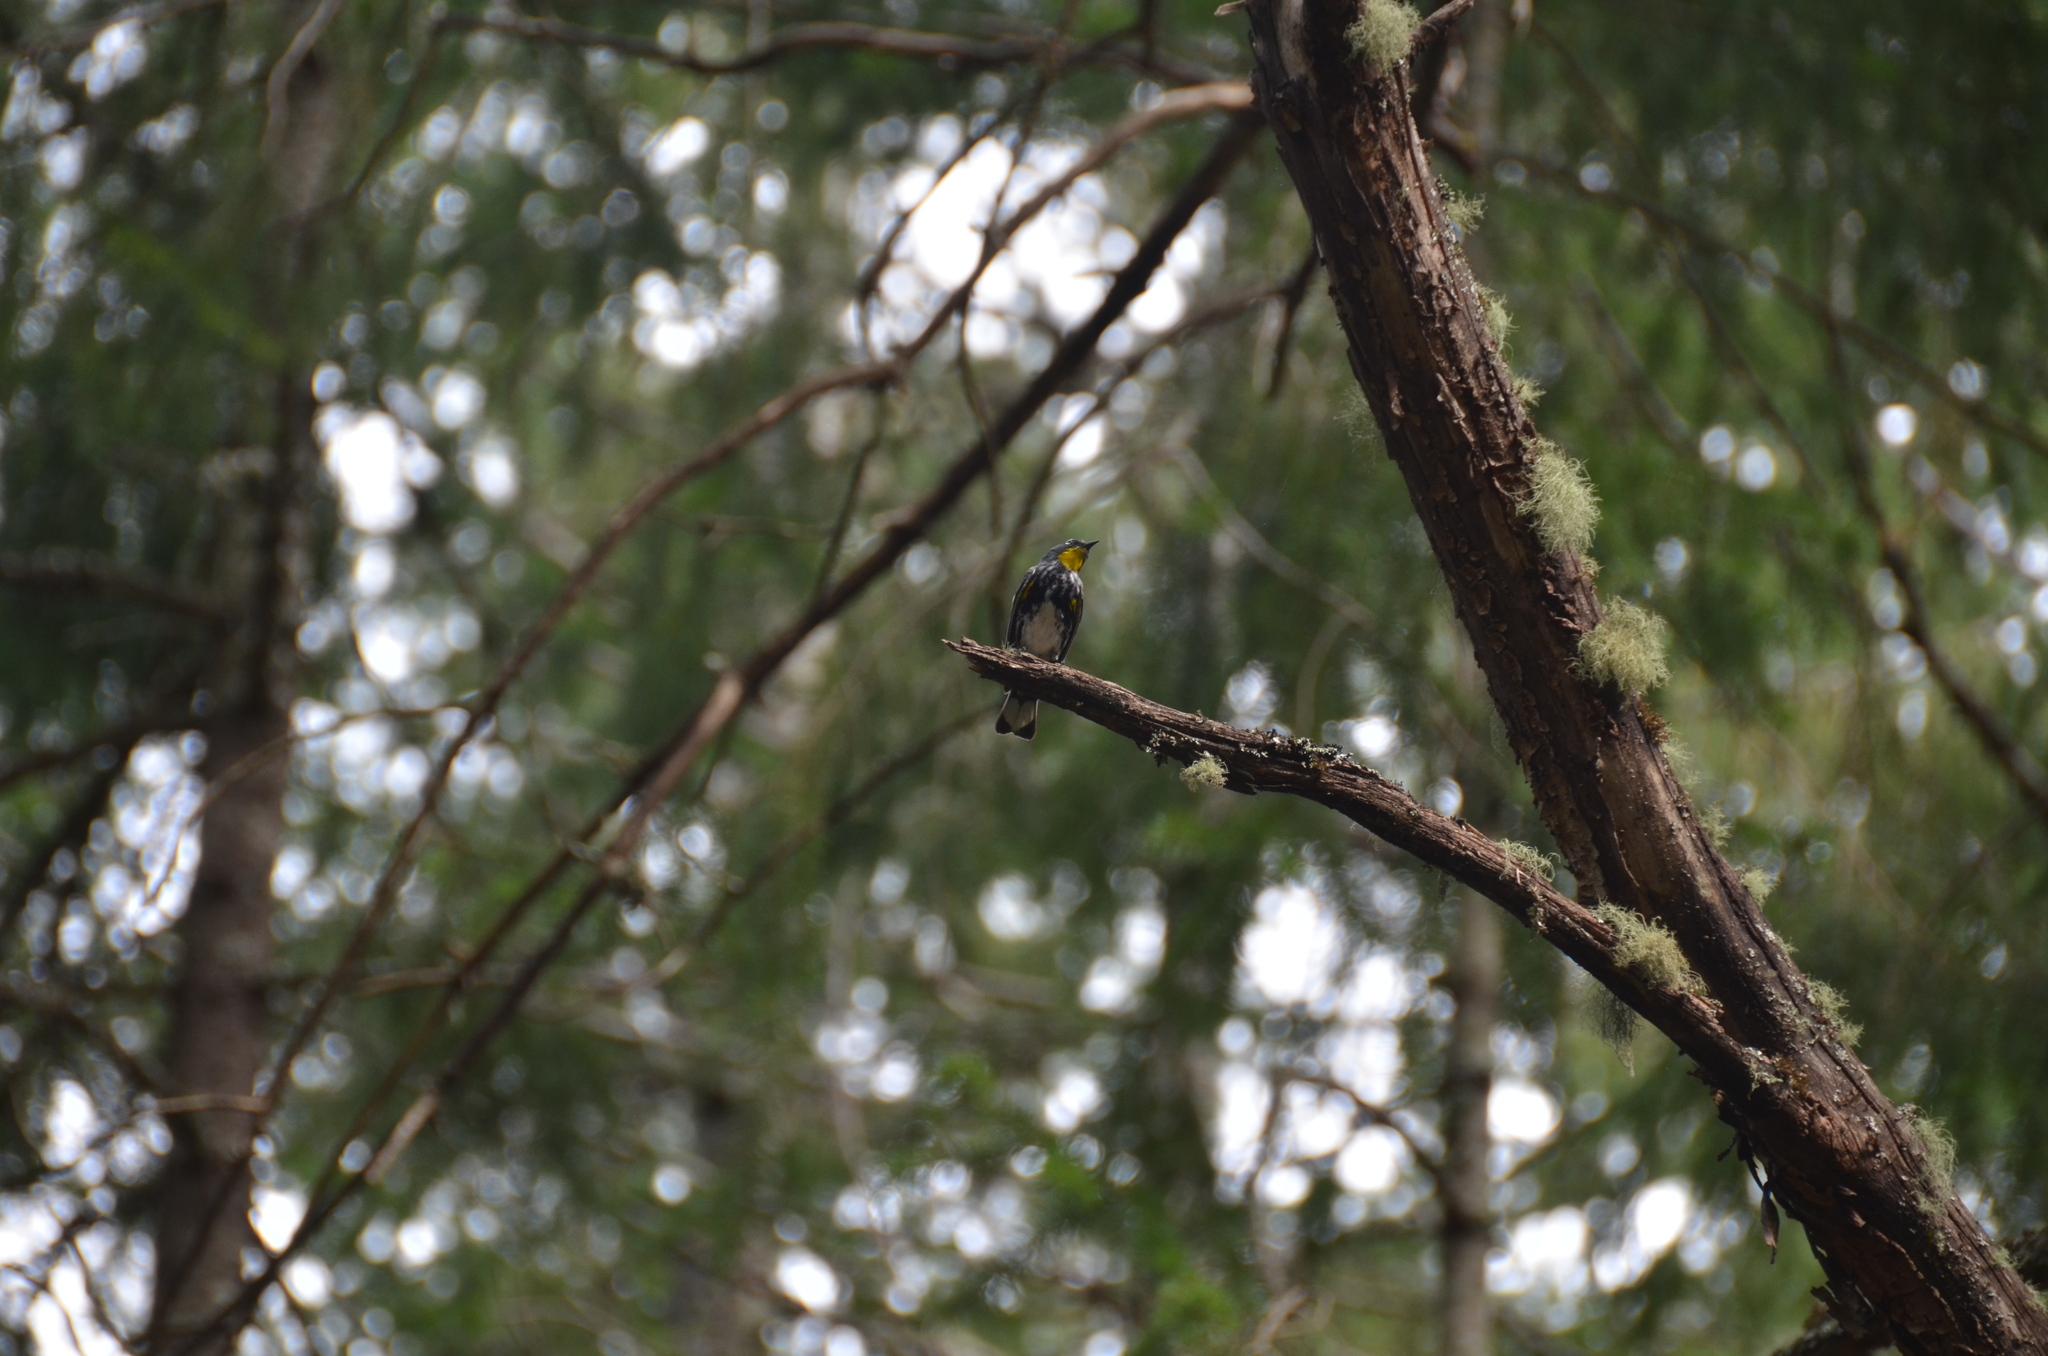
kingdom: Animalia
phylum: Chordata
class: Aves
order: Passeriformes
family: Parulidae
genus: Setophaga
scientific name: Setophaga auduboni
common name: Audubon's warbler
